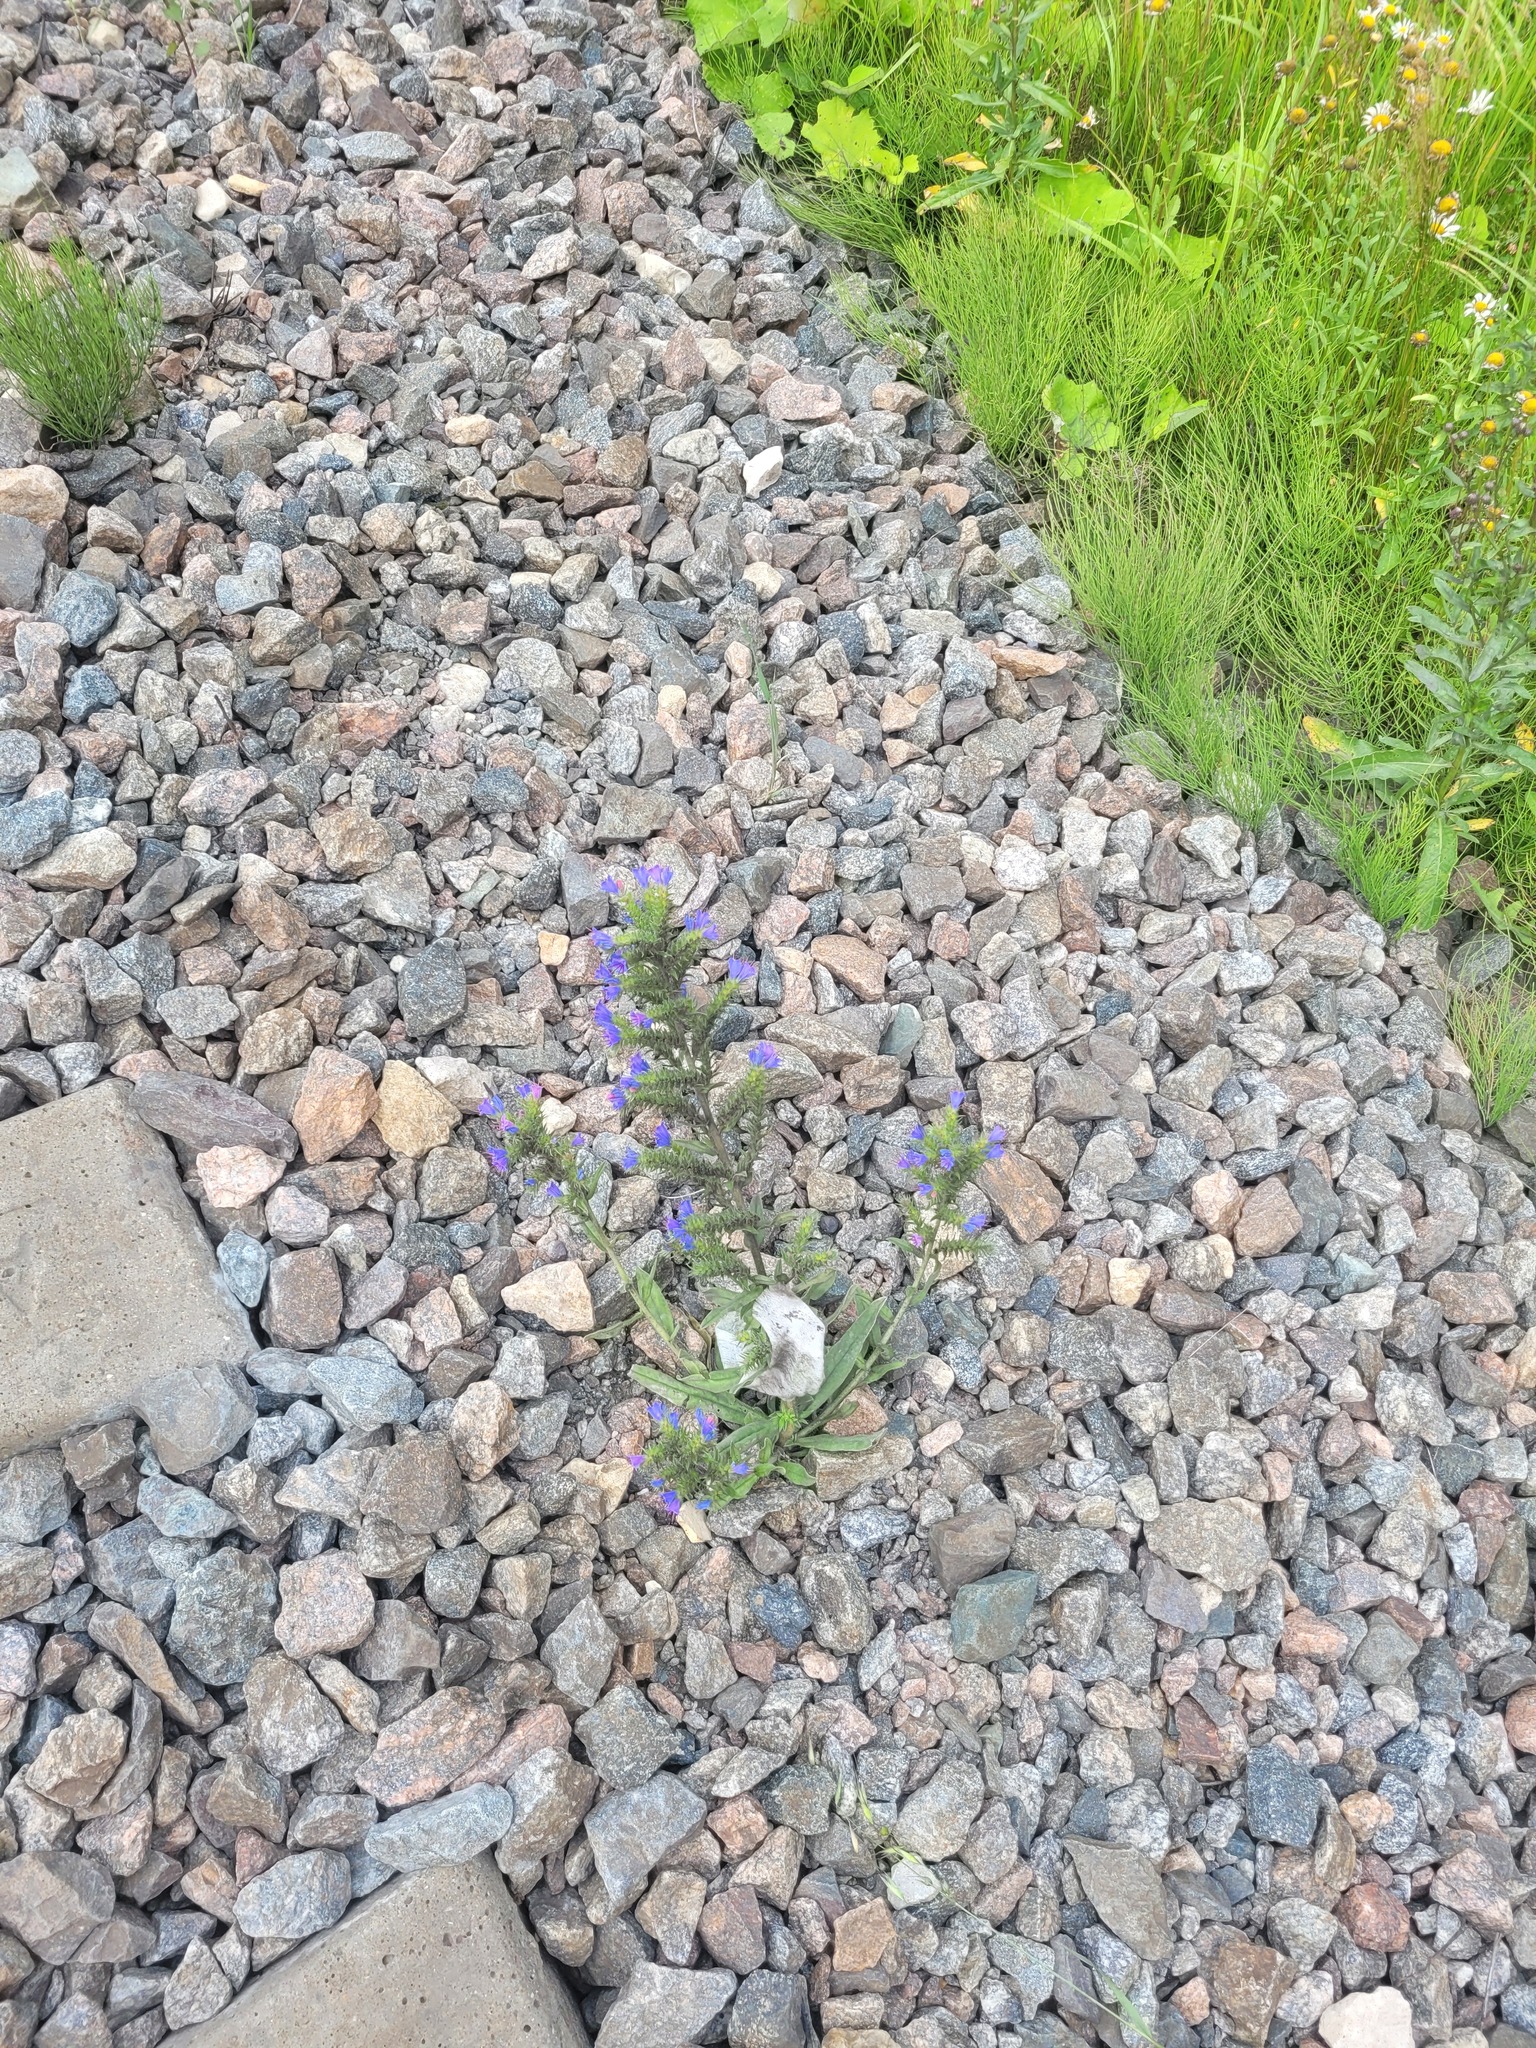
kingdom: Plantae
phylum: Tracheophyta
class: Magnoliopsida
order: Boraginales
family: Boraginaceae
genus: Echium
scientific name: Echium vulgare
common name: Common viper's bugloss
